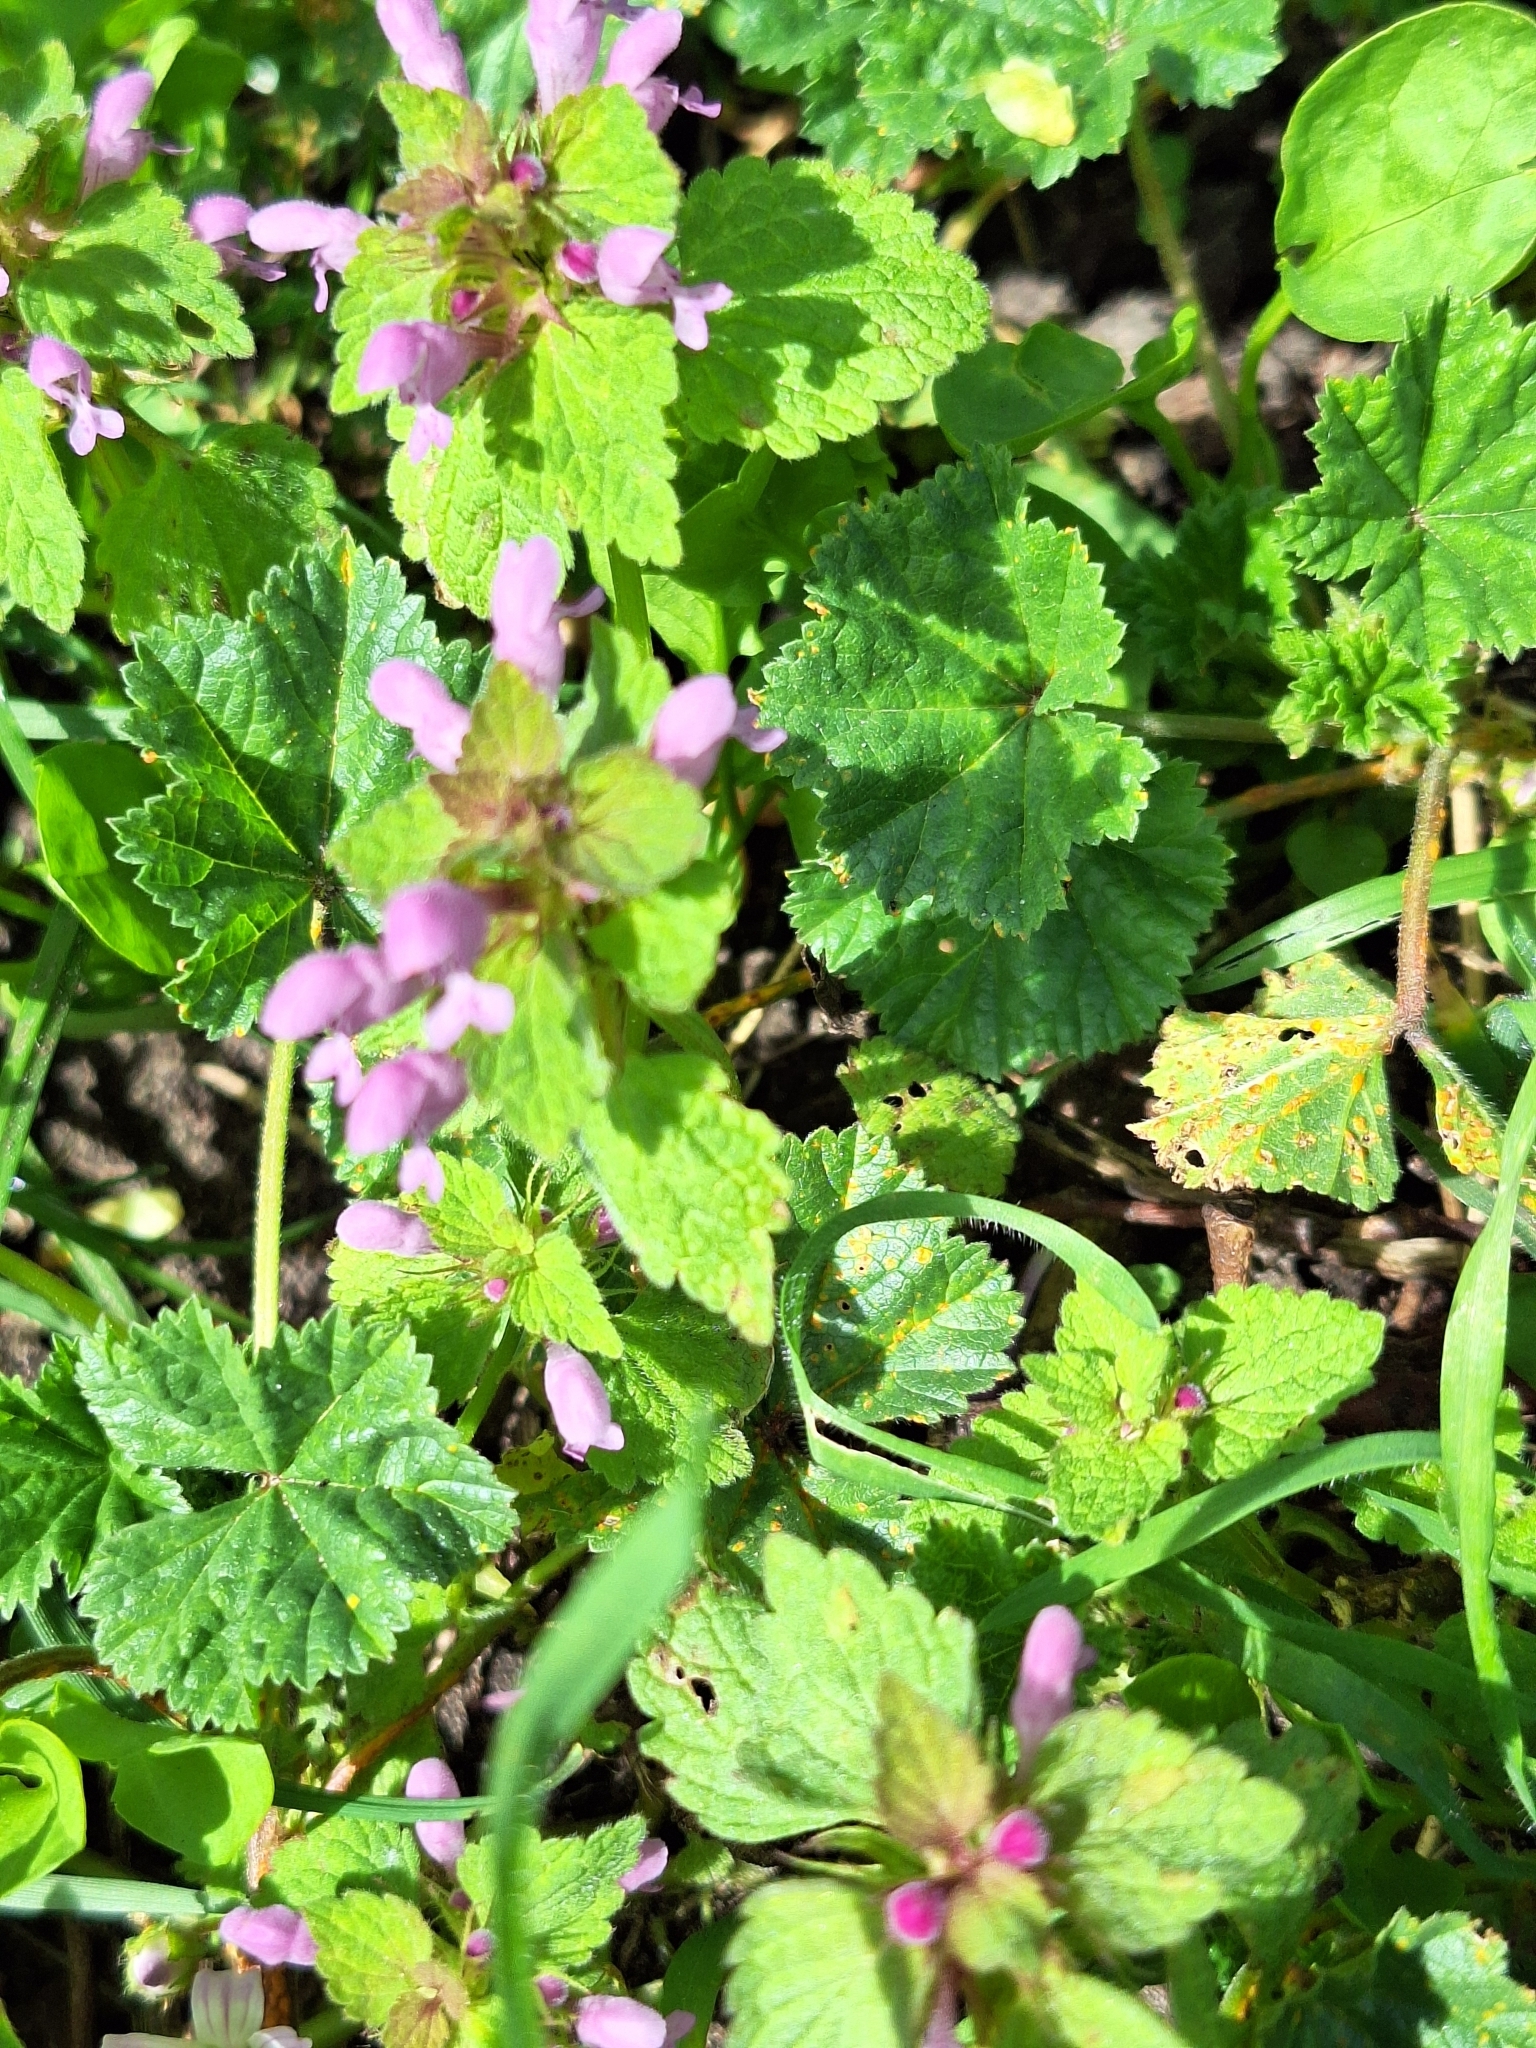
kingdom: Plantae
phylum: Tracheophyta
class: Magnoliopsida
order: Lamiales
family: Lamiaceae
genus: Lamium
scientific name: Lamium purpureum
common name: Red dead-nettle
